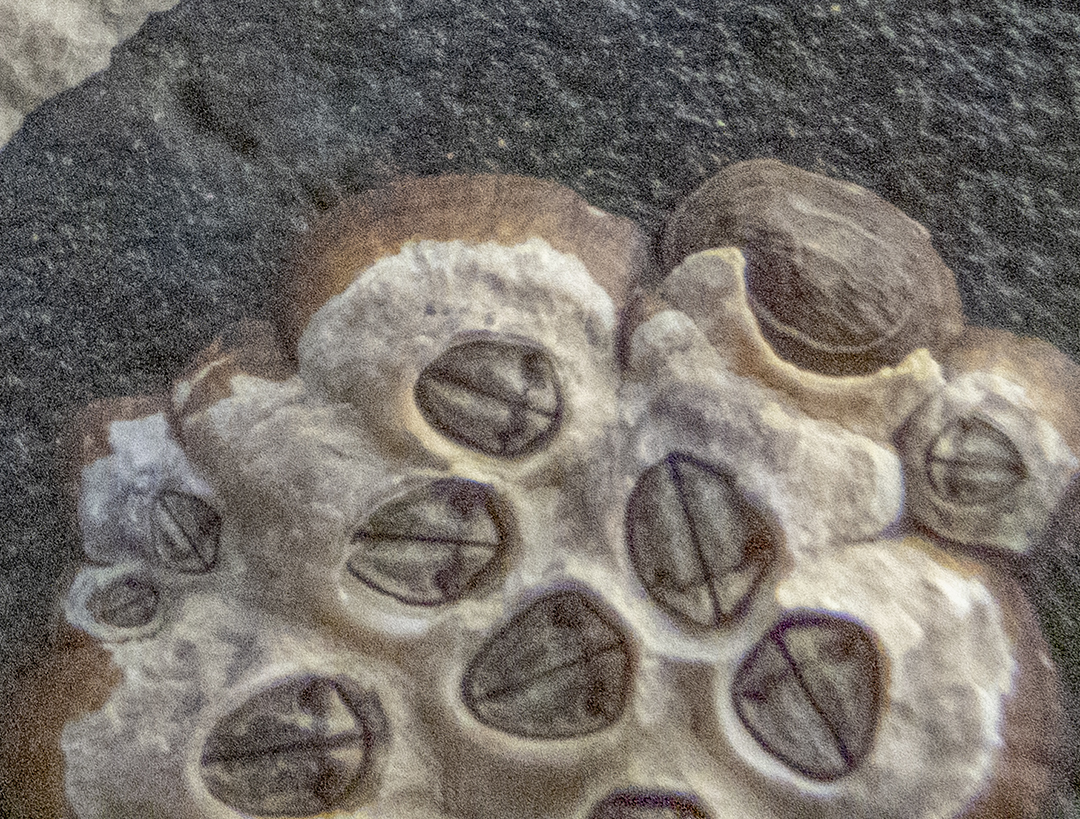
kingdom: Animalia
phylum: Arthropoda
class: Maxillopoda
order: Sessilia
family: Chthamalidae
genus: Chamaesipho
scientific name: Chamaesipho columna
